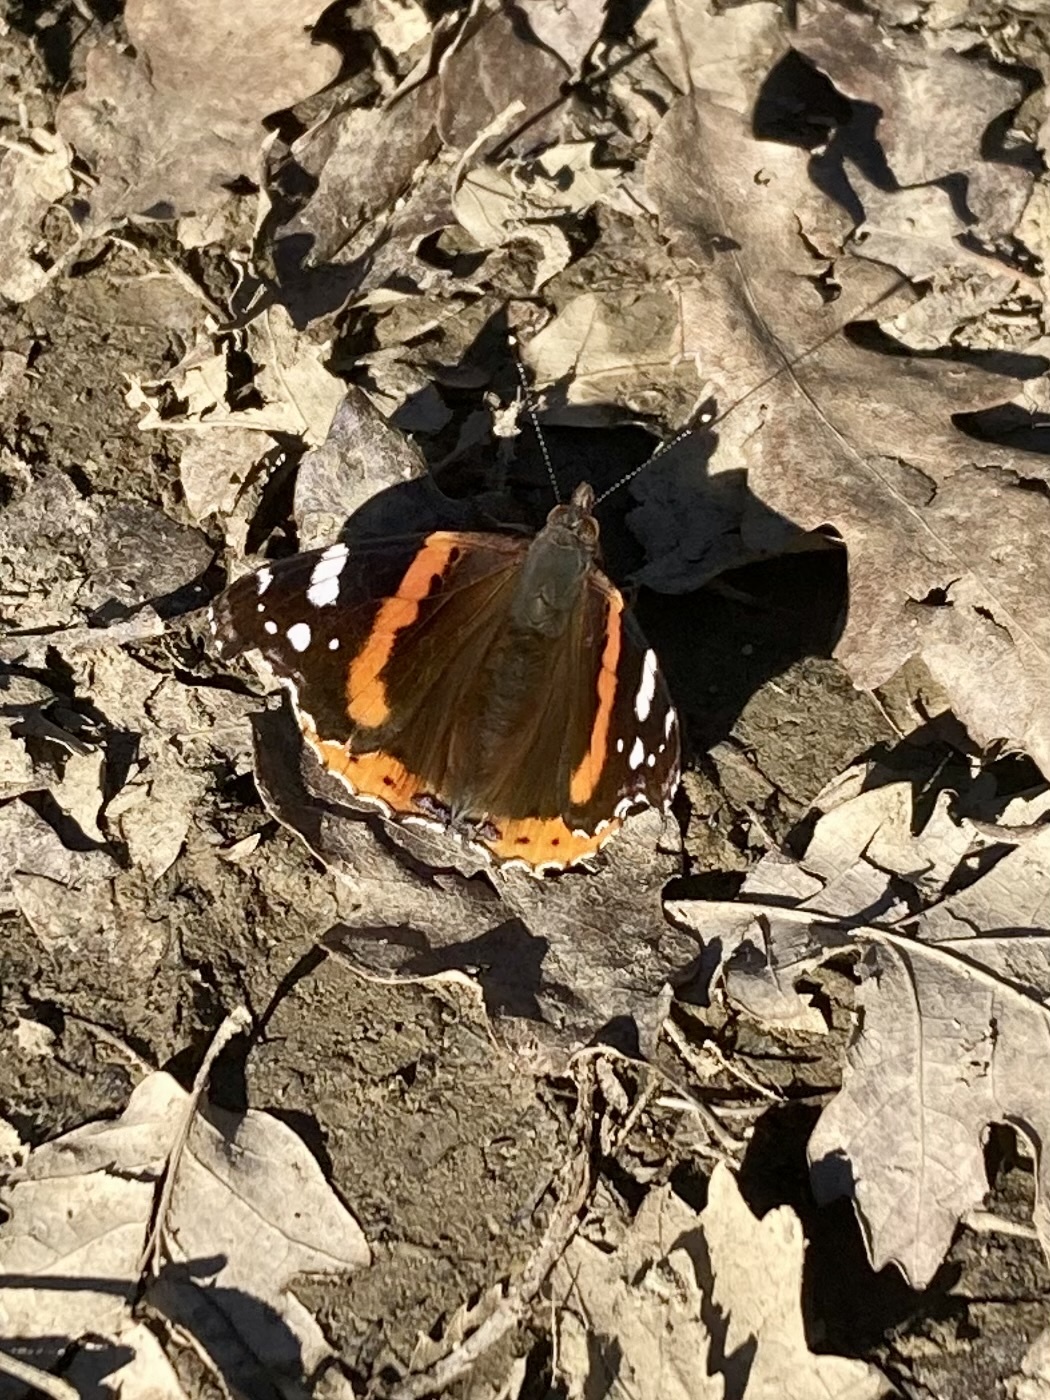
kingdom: Animalia
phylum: Arthropoda
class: Insecta
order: Lepidoptera
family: Nymphalidae
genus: Vanessa
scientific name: Vanessa atalanta
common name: Red admiral
